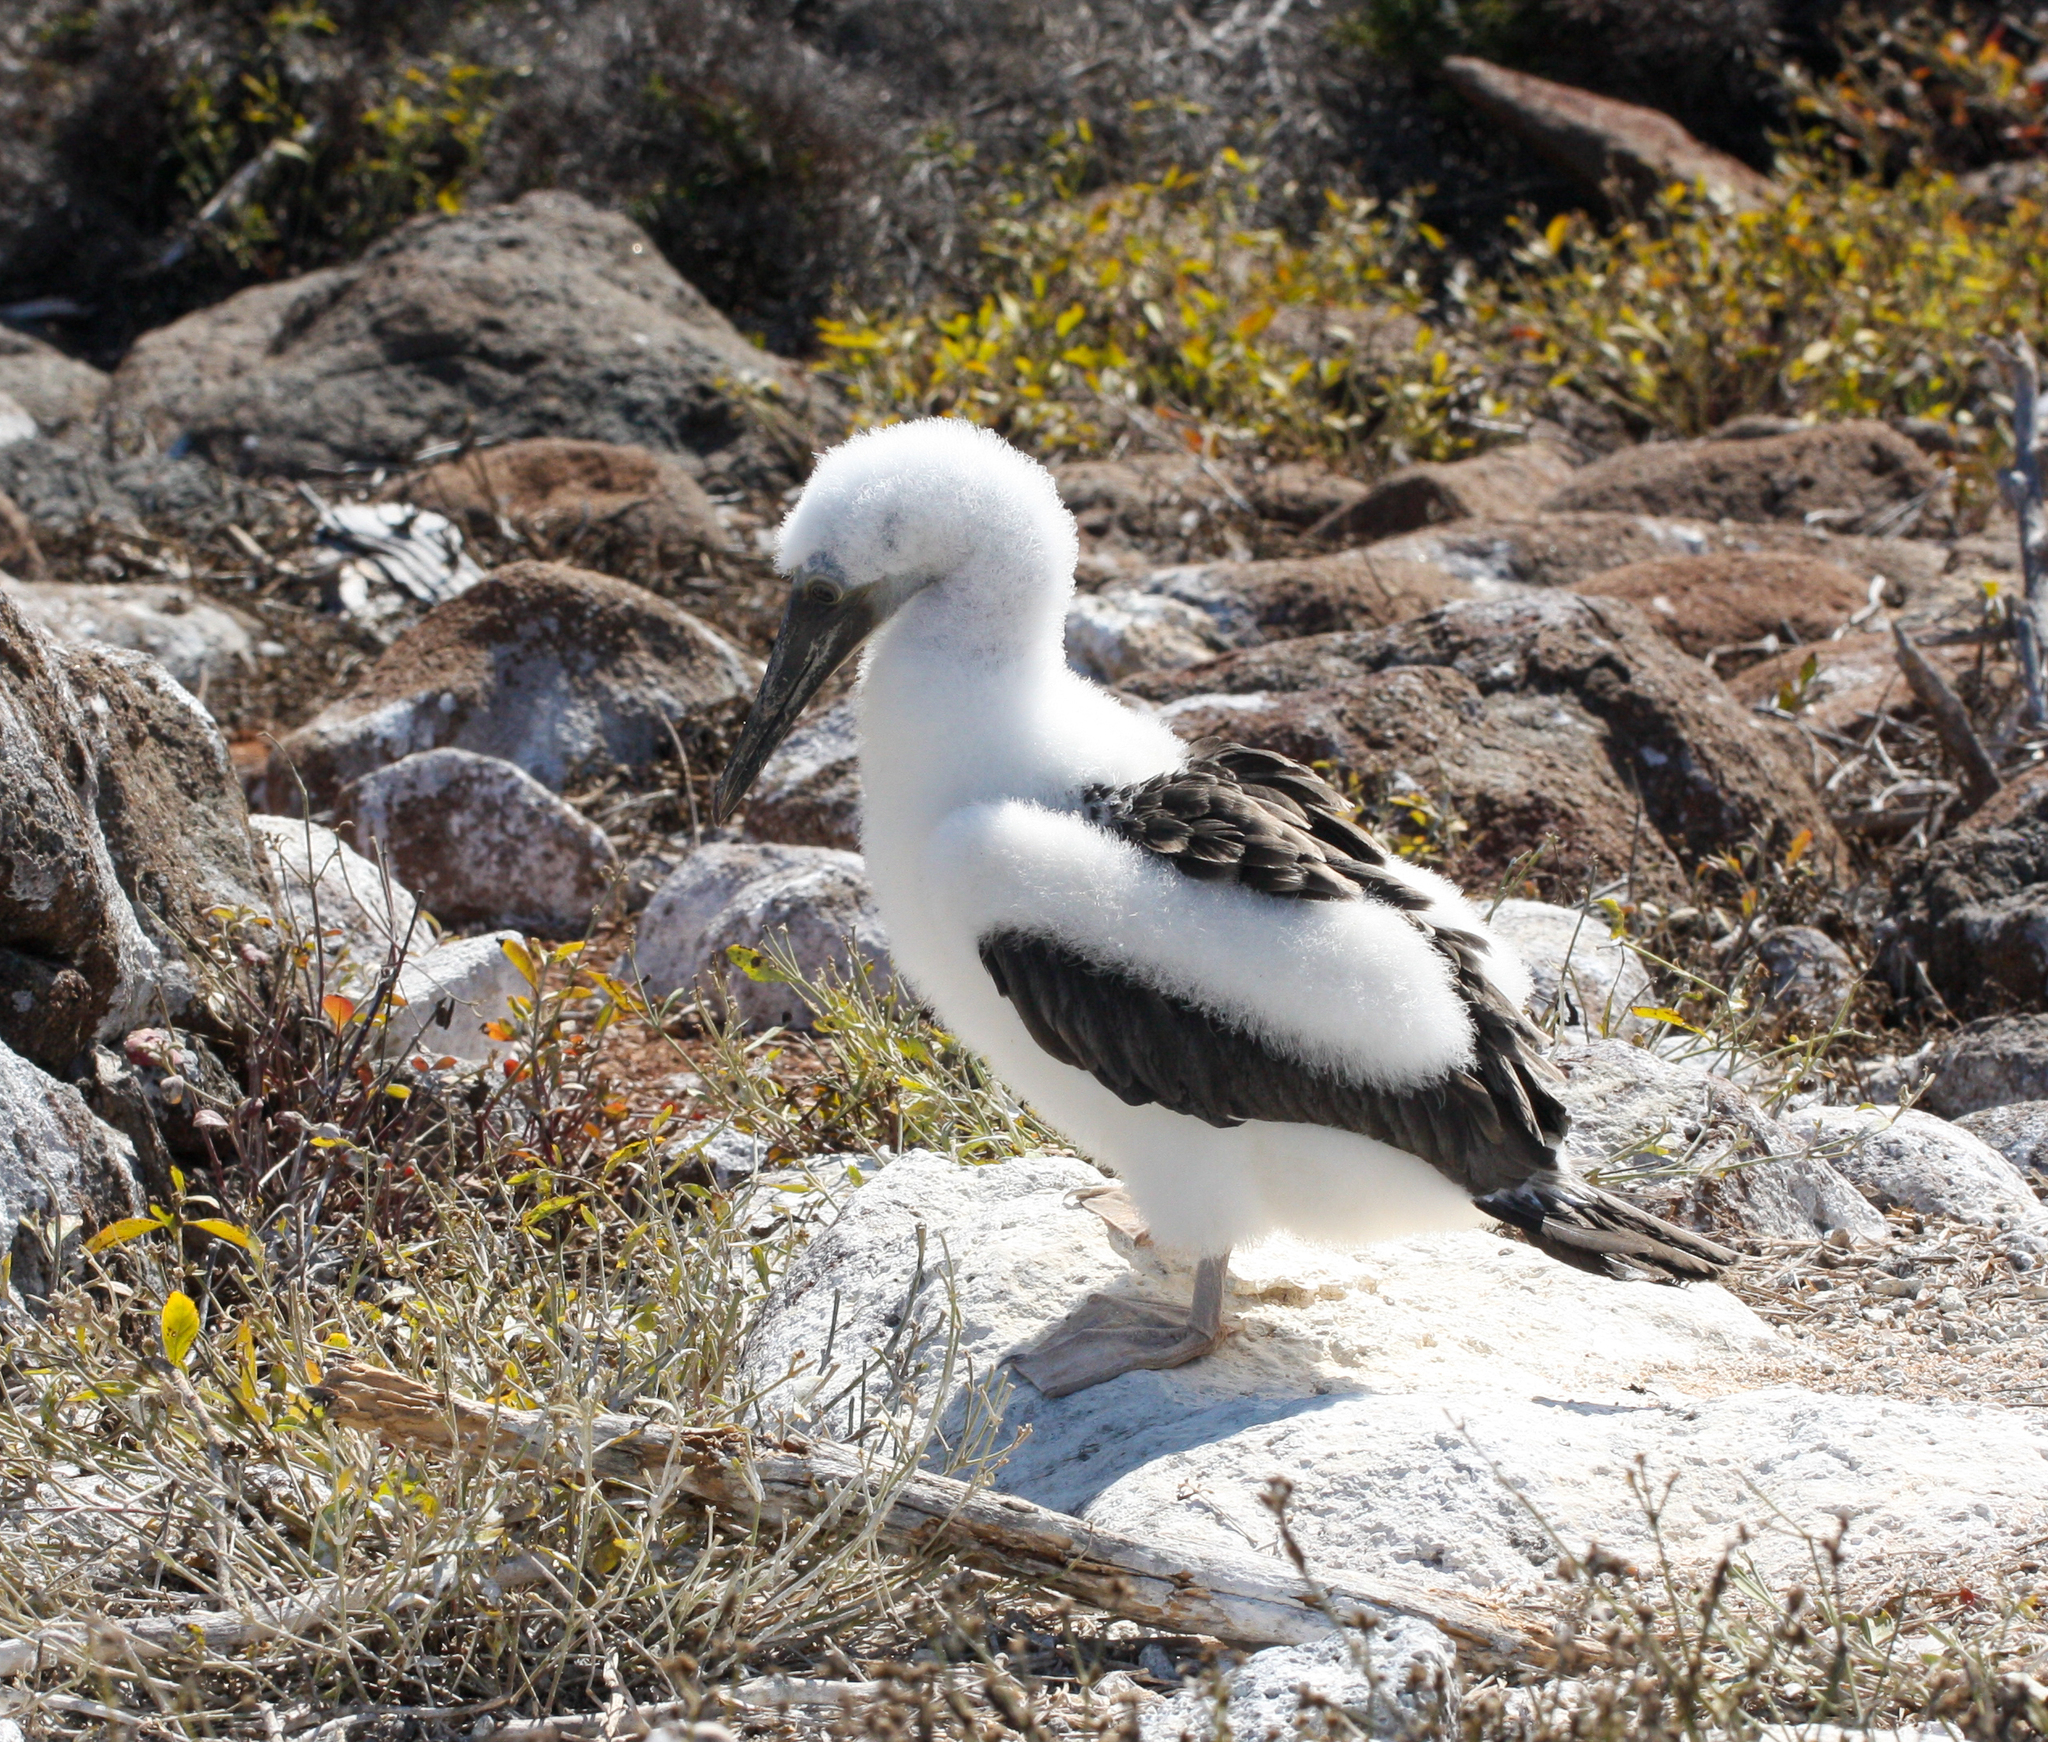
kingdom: Animalia
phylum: Chordata
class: Aves
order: Suliformes
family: Sulidae
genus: Sula
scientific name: Sula nebouxii
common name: Blue-footed booby
